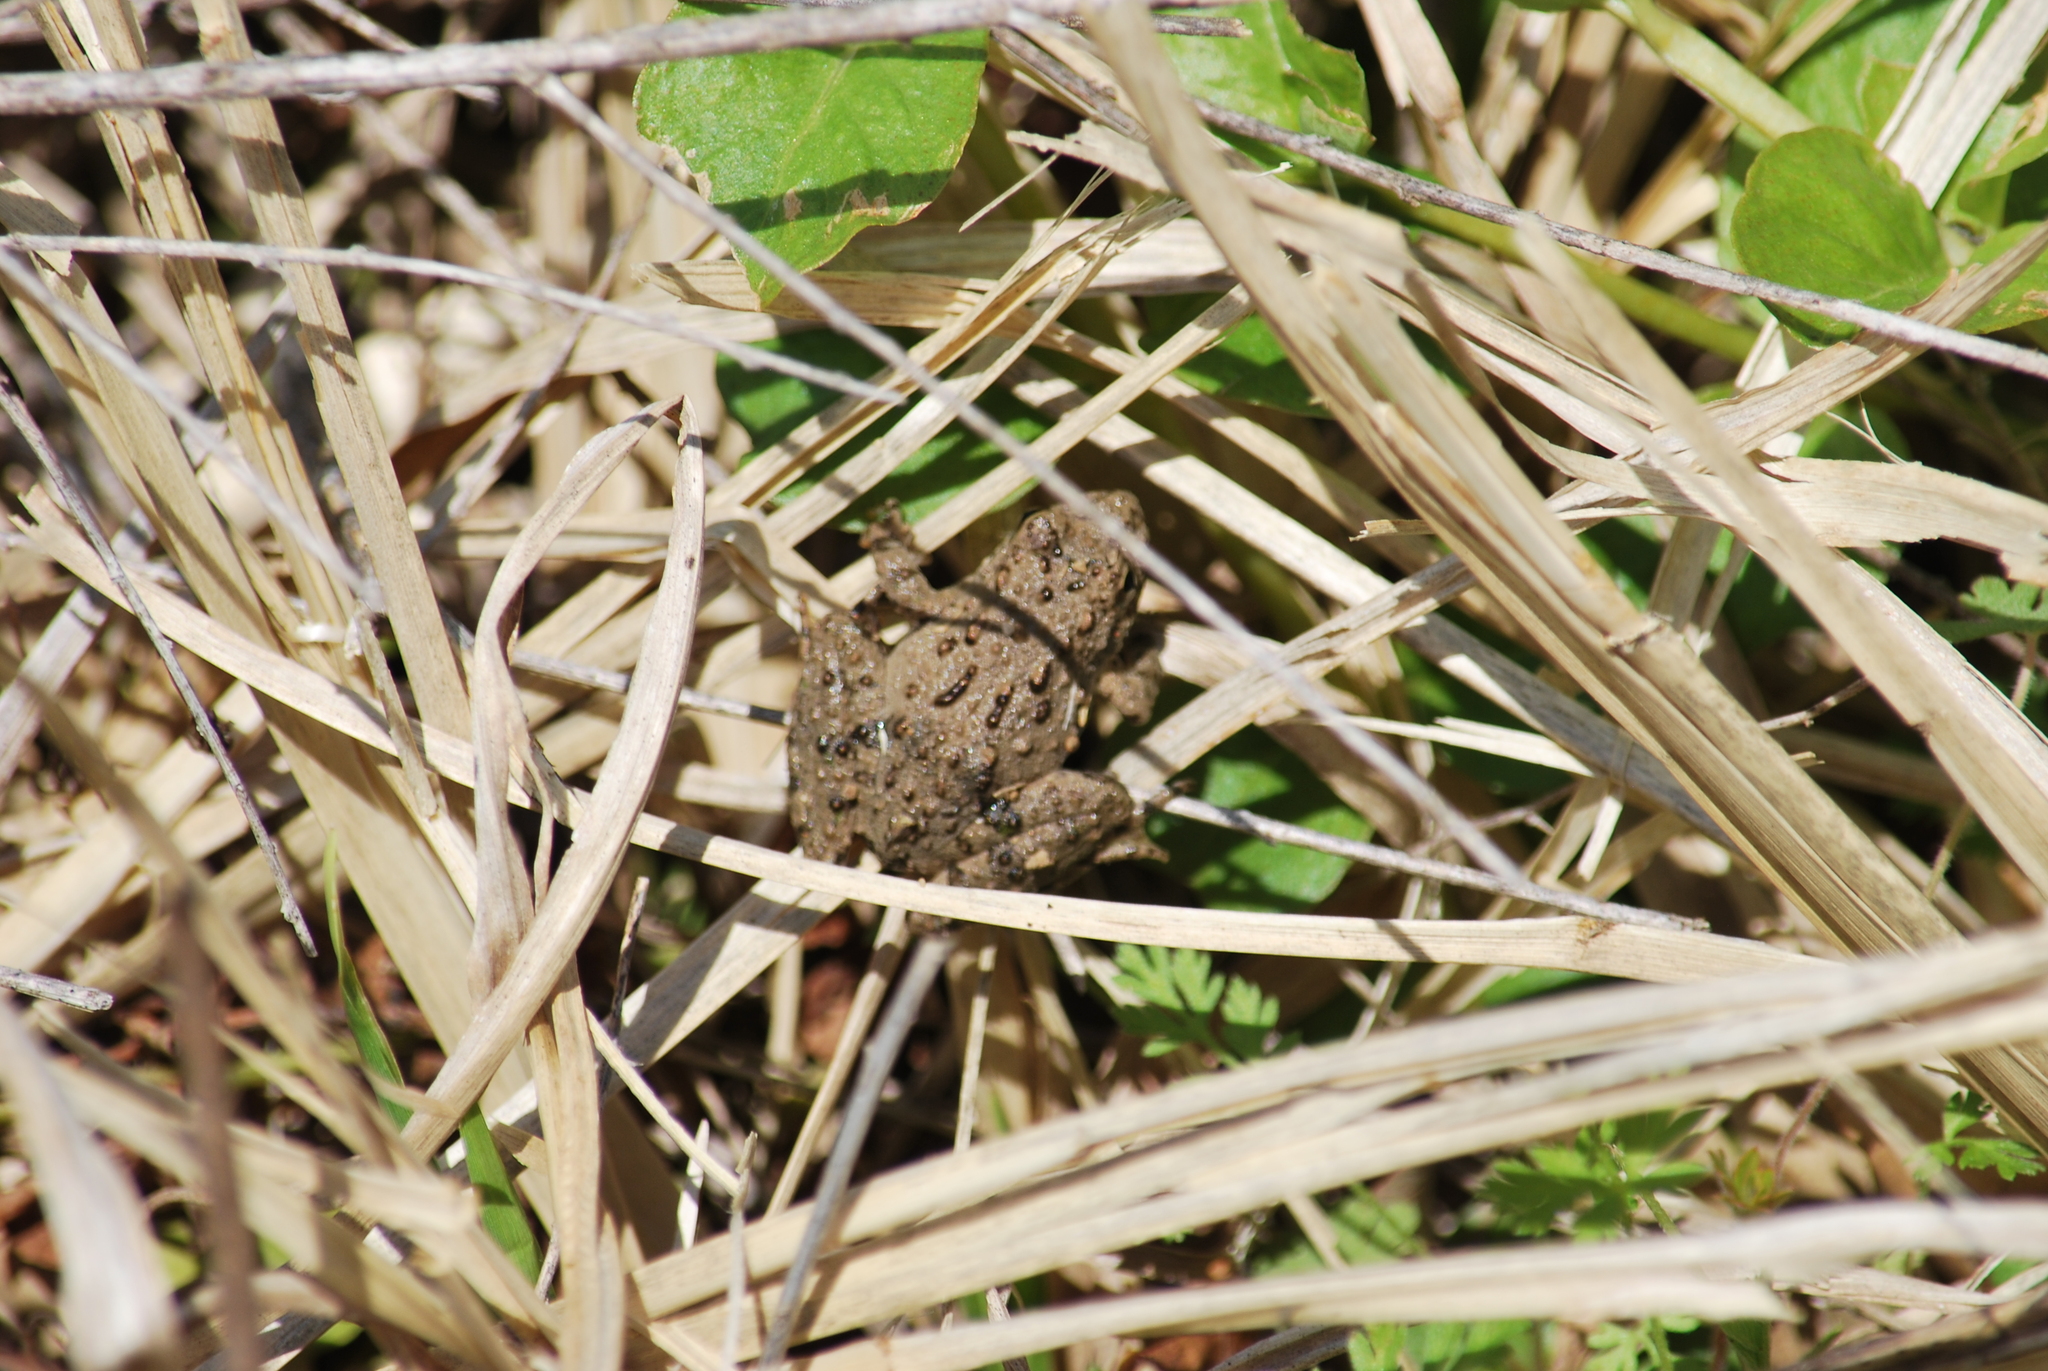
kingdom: Animalia
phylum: Chordata
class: Amphibia
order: Anura
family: Hylidae
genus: Acris
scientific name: Acris blanchardi
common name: Blanchard's cricket frog
